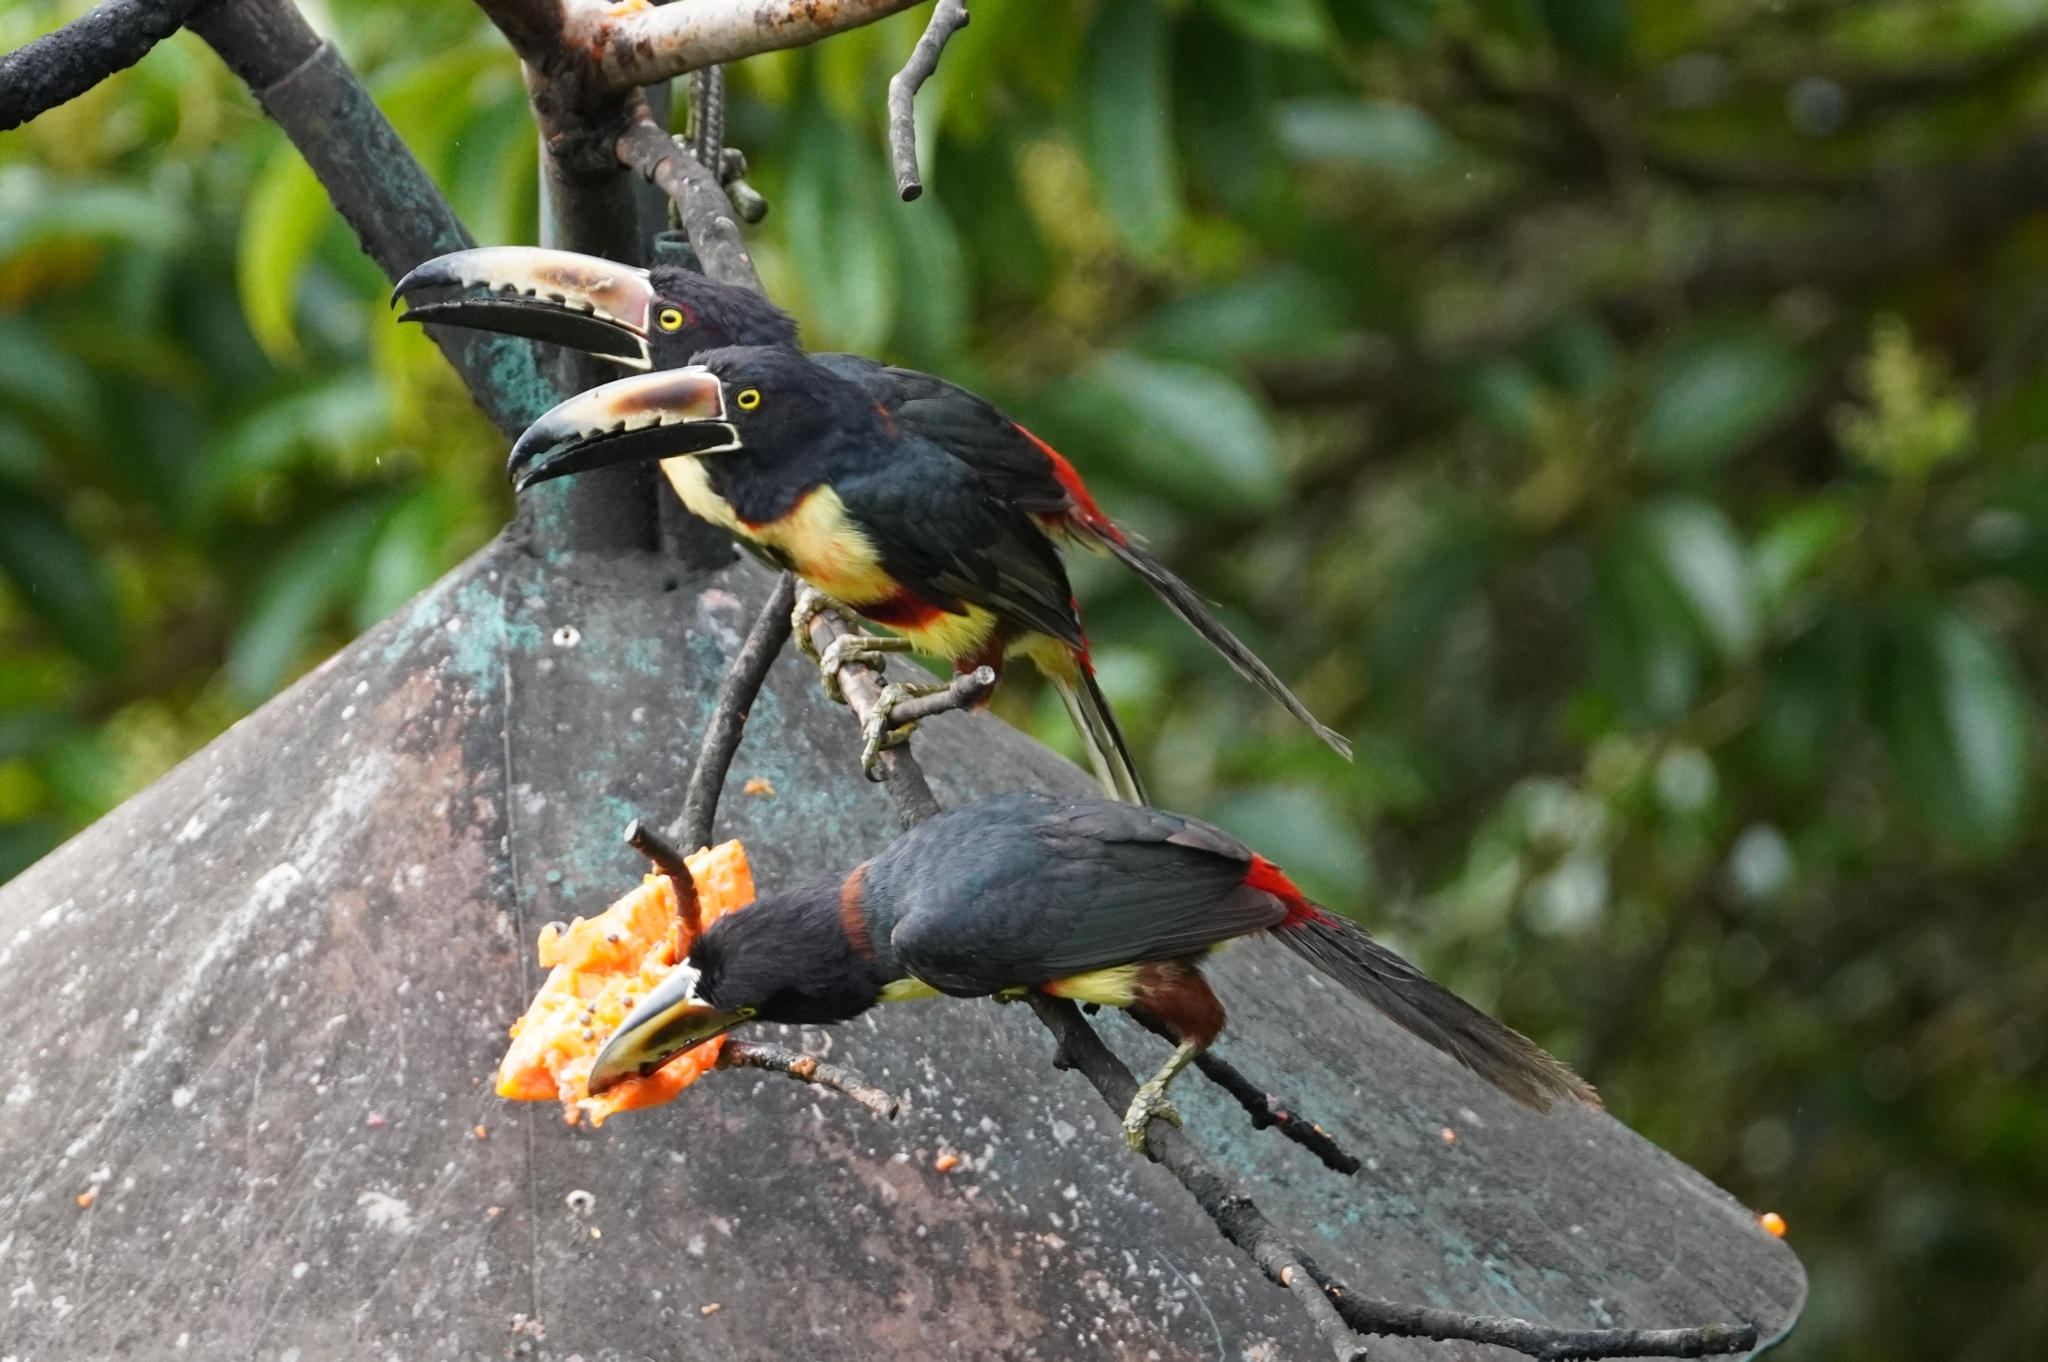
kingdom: Animalia
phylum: Chordata
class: Aves
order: Piciformes
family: Ramphastidae
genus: Pteroglossus
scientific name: Pteroglossus torquatus
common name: Collared aracari
